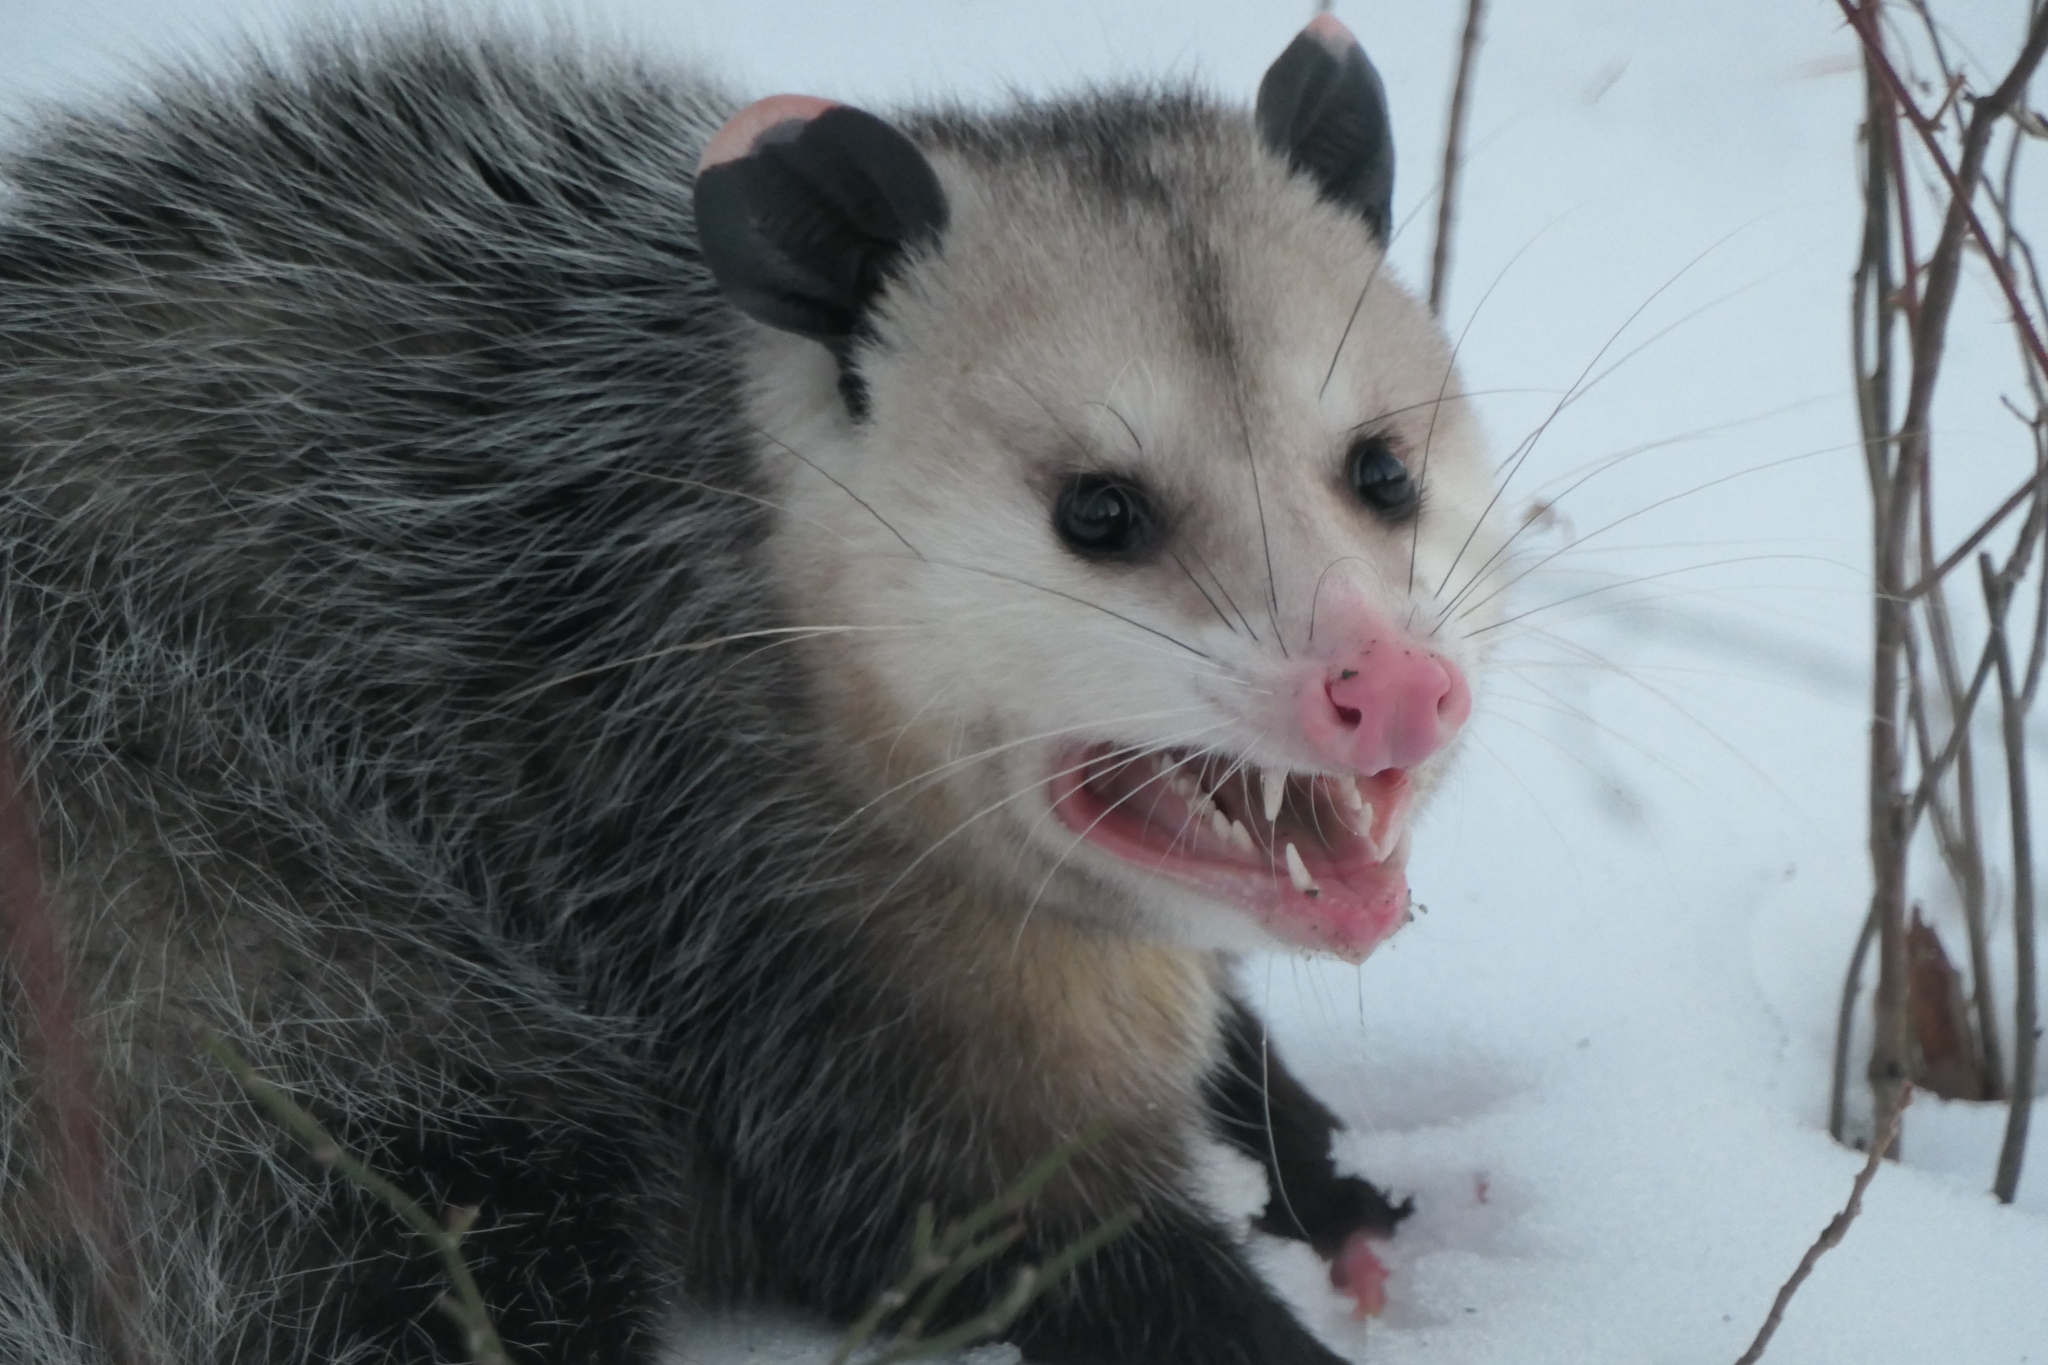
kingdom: Animalia
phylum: Chordata
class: Mammalia
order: Didelphimorphia
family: Didelphidae
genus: Didelphis
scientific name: Didelphis virginiana
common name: Virginia opossum
